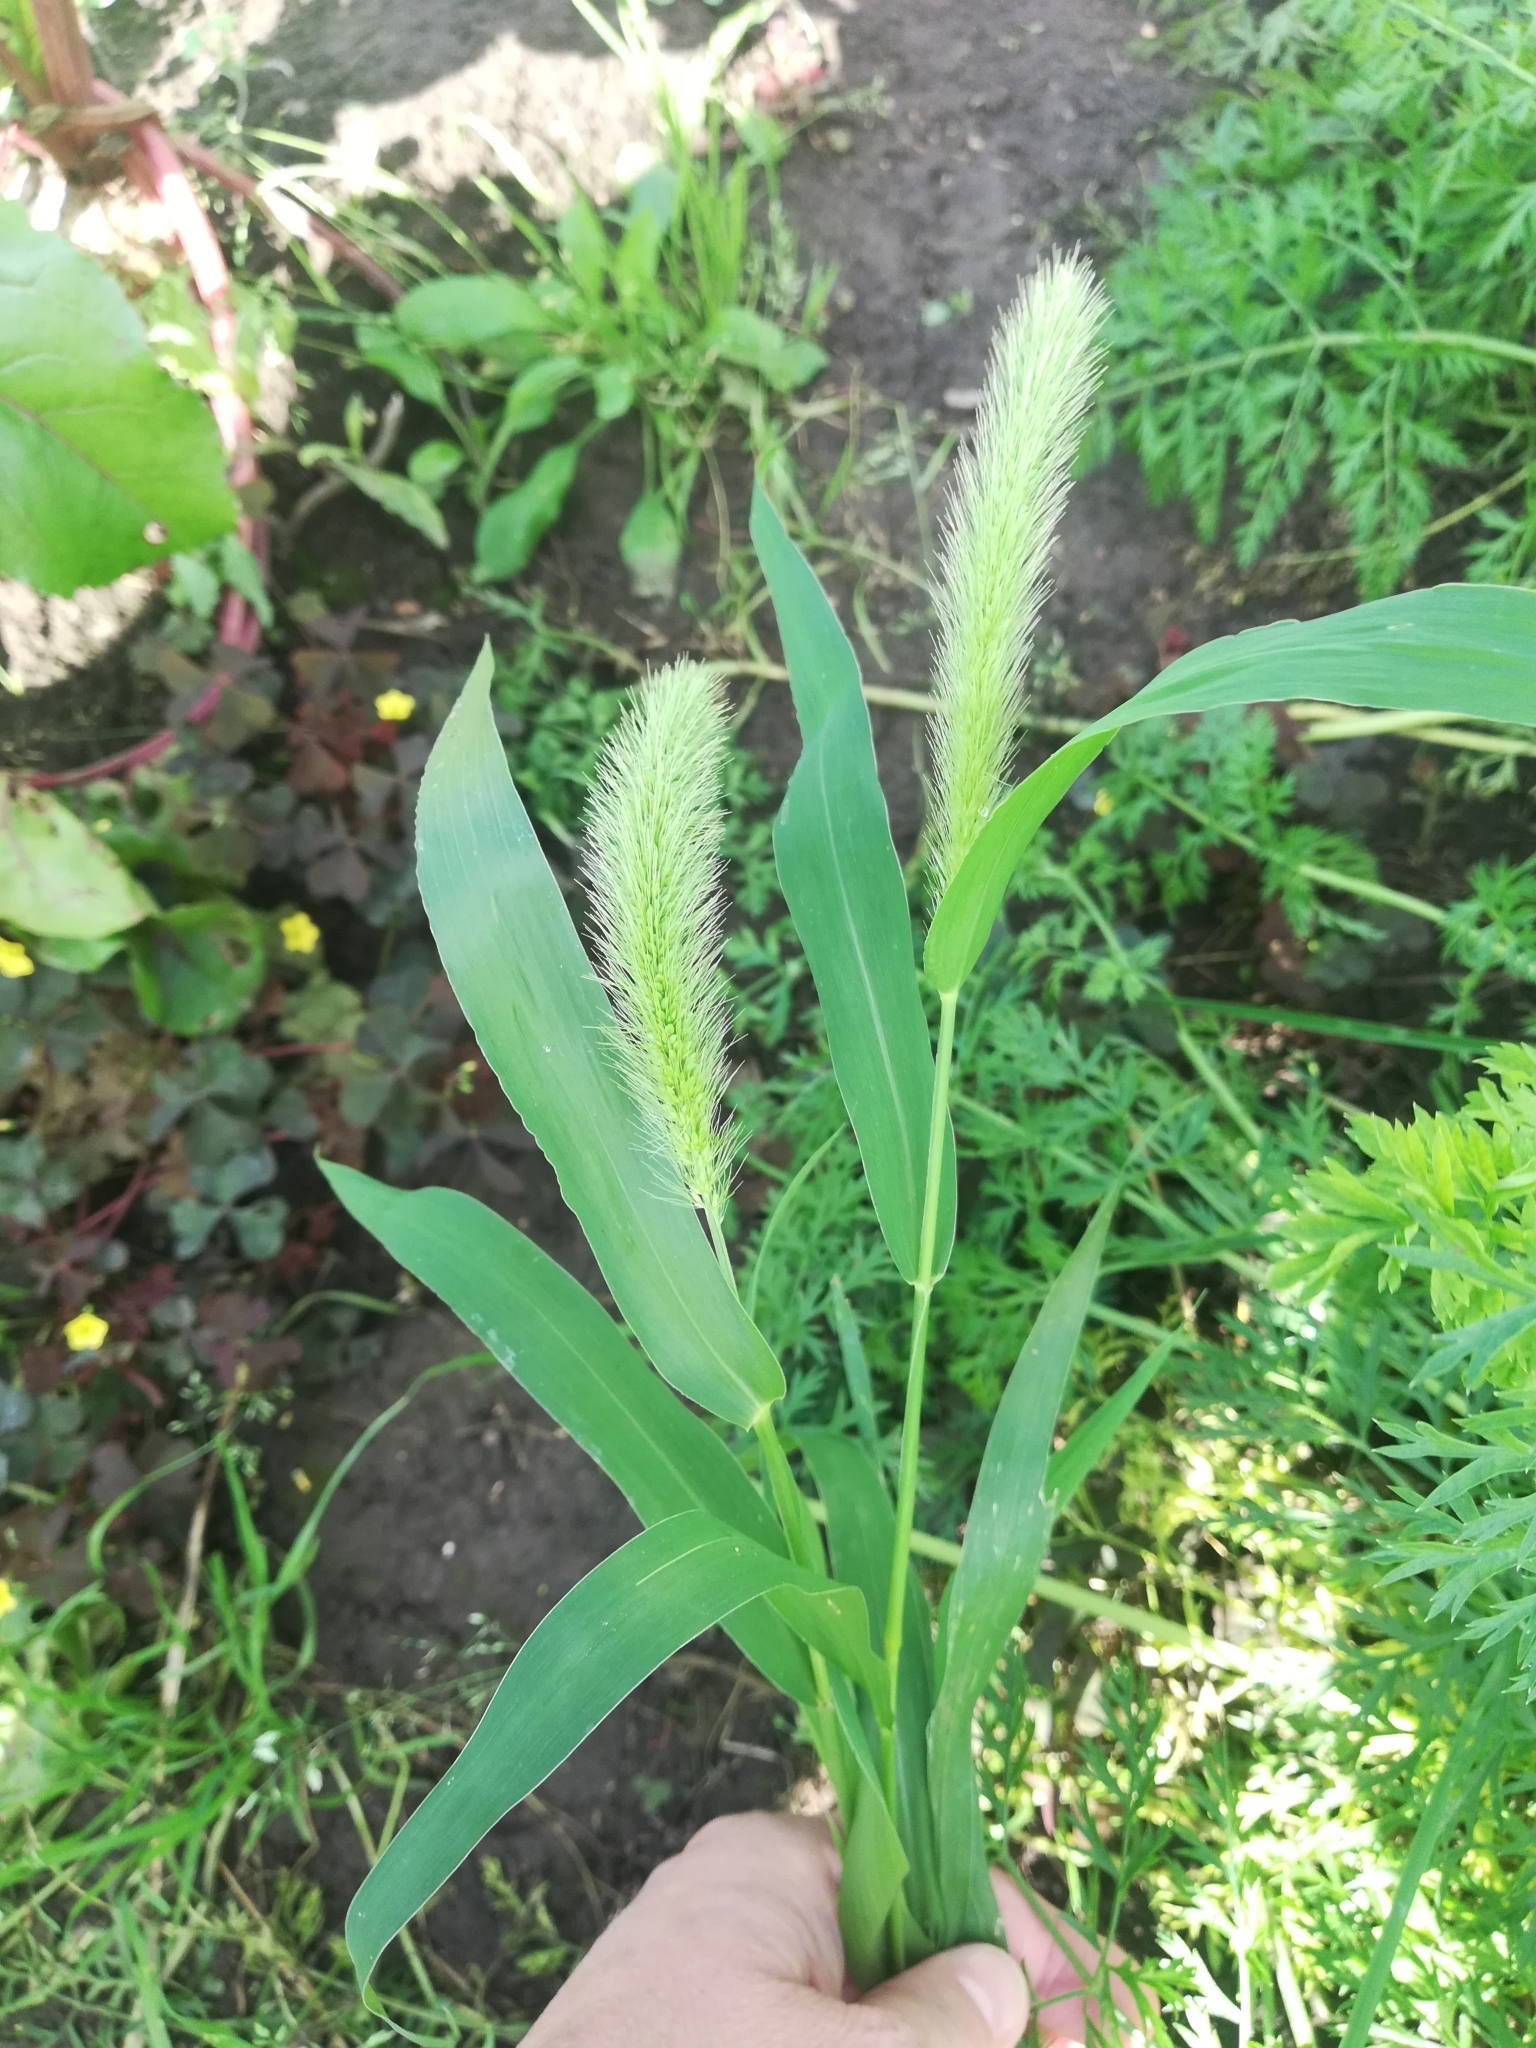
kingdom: Plantae
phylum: Tracheophyta
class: Liliopsida
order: Poales
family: Poaceae
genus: Setaria
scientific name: Setaria viridis
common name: Green bristlegrass
